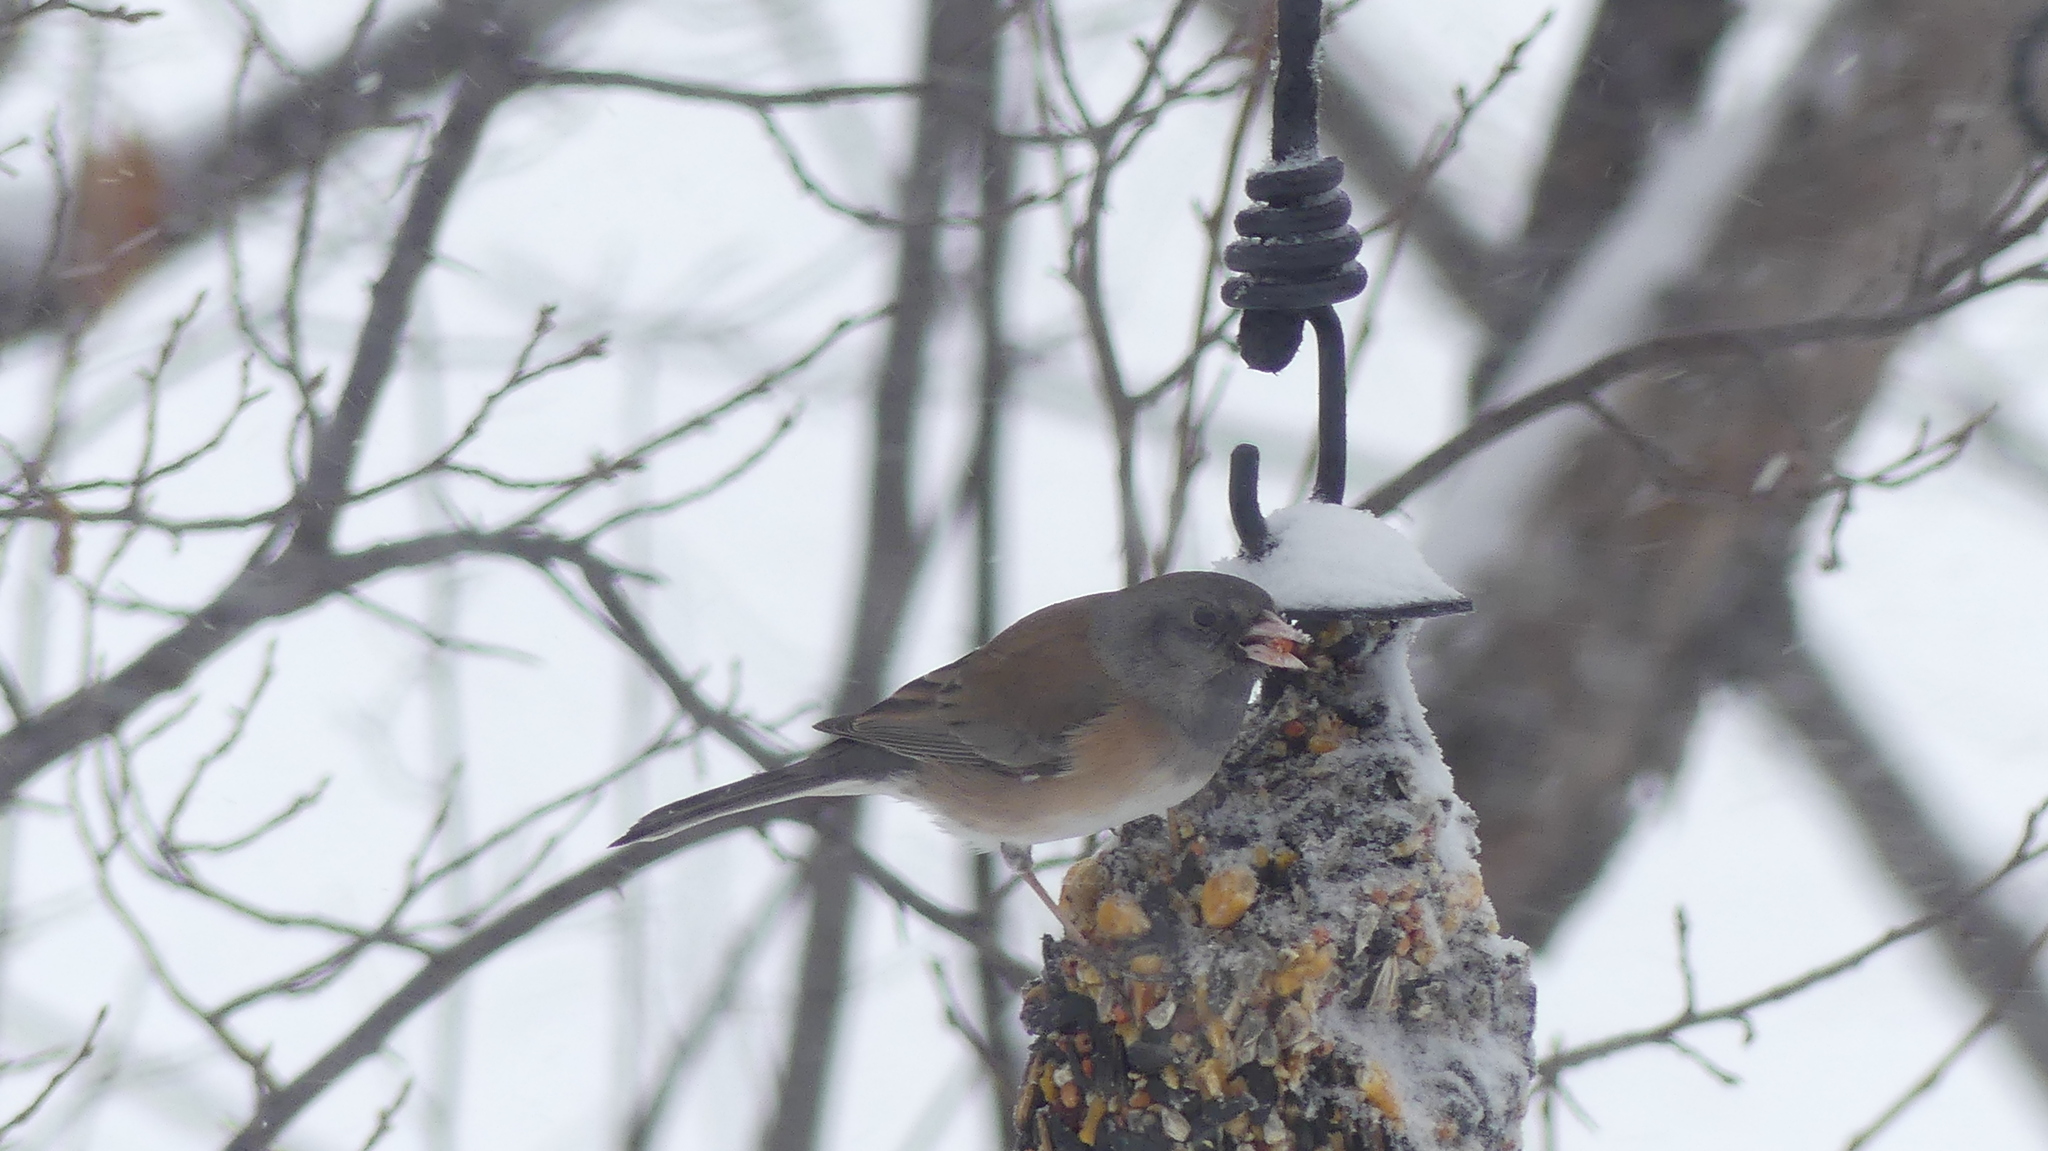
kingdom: Animalia
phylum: Chordata
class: Aves
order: Passeriformes
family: Passerellidae
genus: Junco
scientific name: Junco hyemalis
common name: Dark-eyed junco
